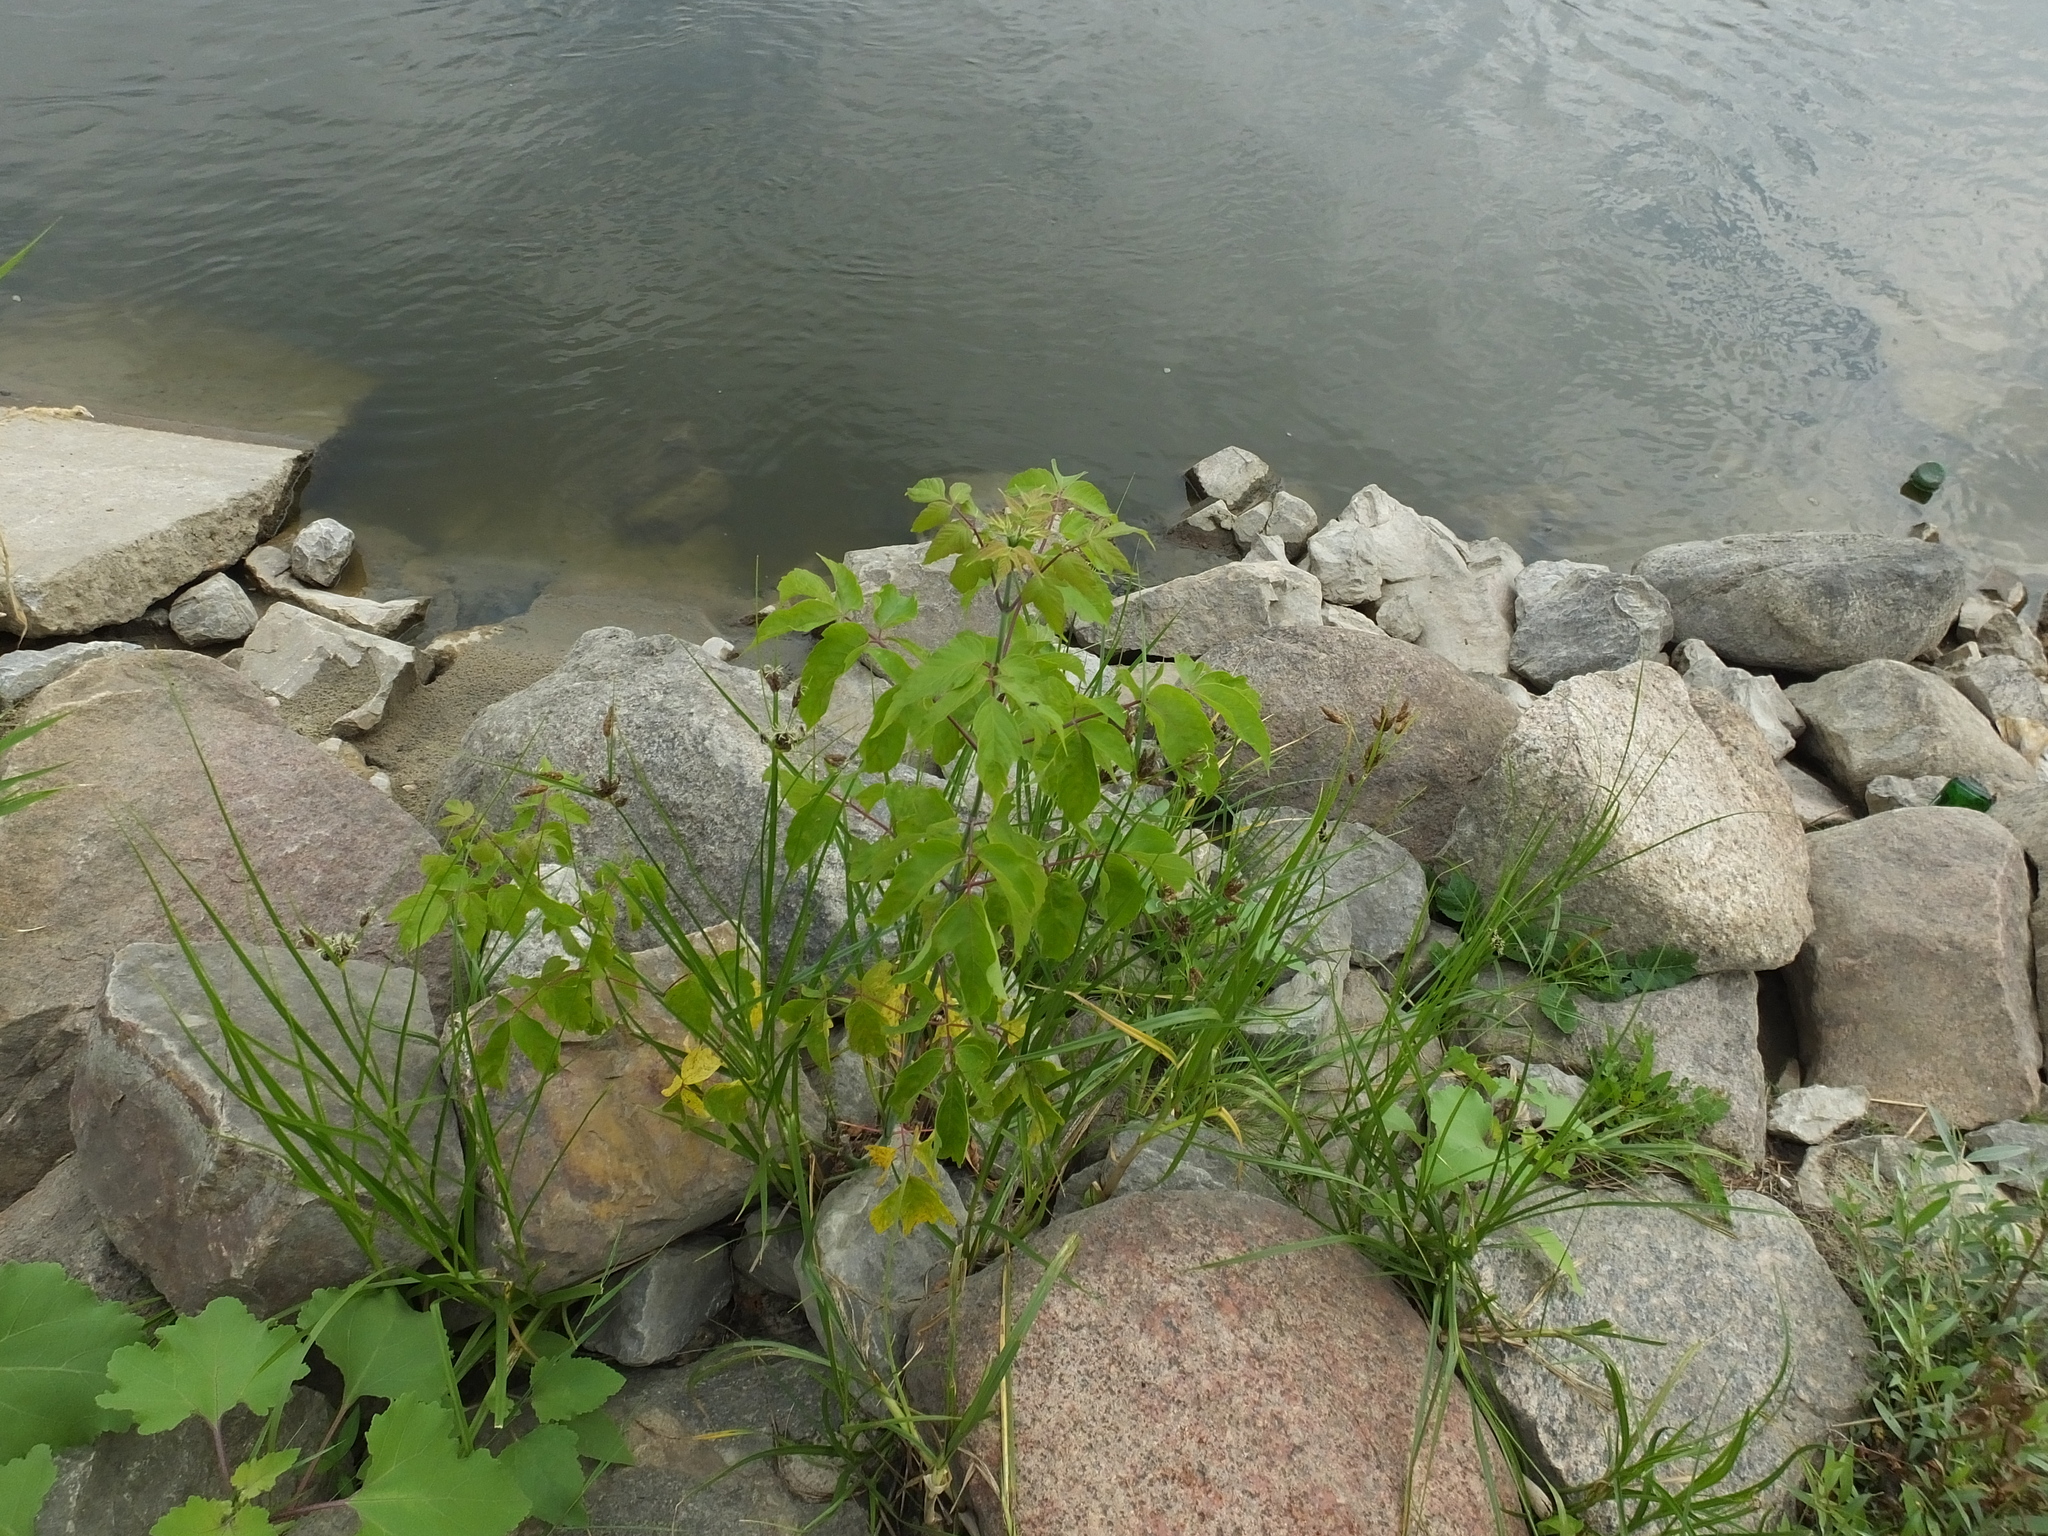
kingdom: Plantae
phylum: Tracheophyta
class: Magnoliopsida
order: Sapindales
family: Sapindaceae
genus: Acer
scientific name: Acer negundo
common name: Ashleaf maple
